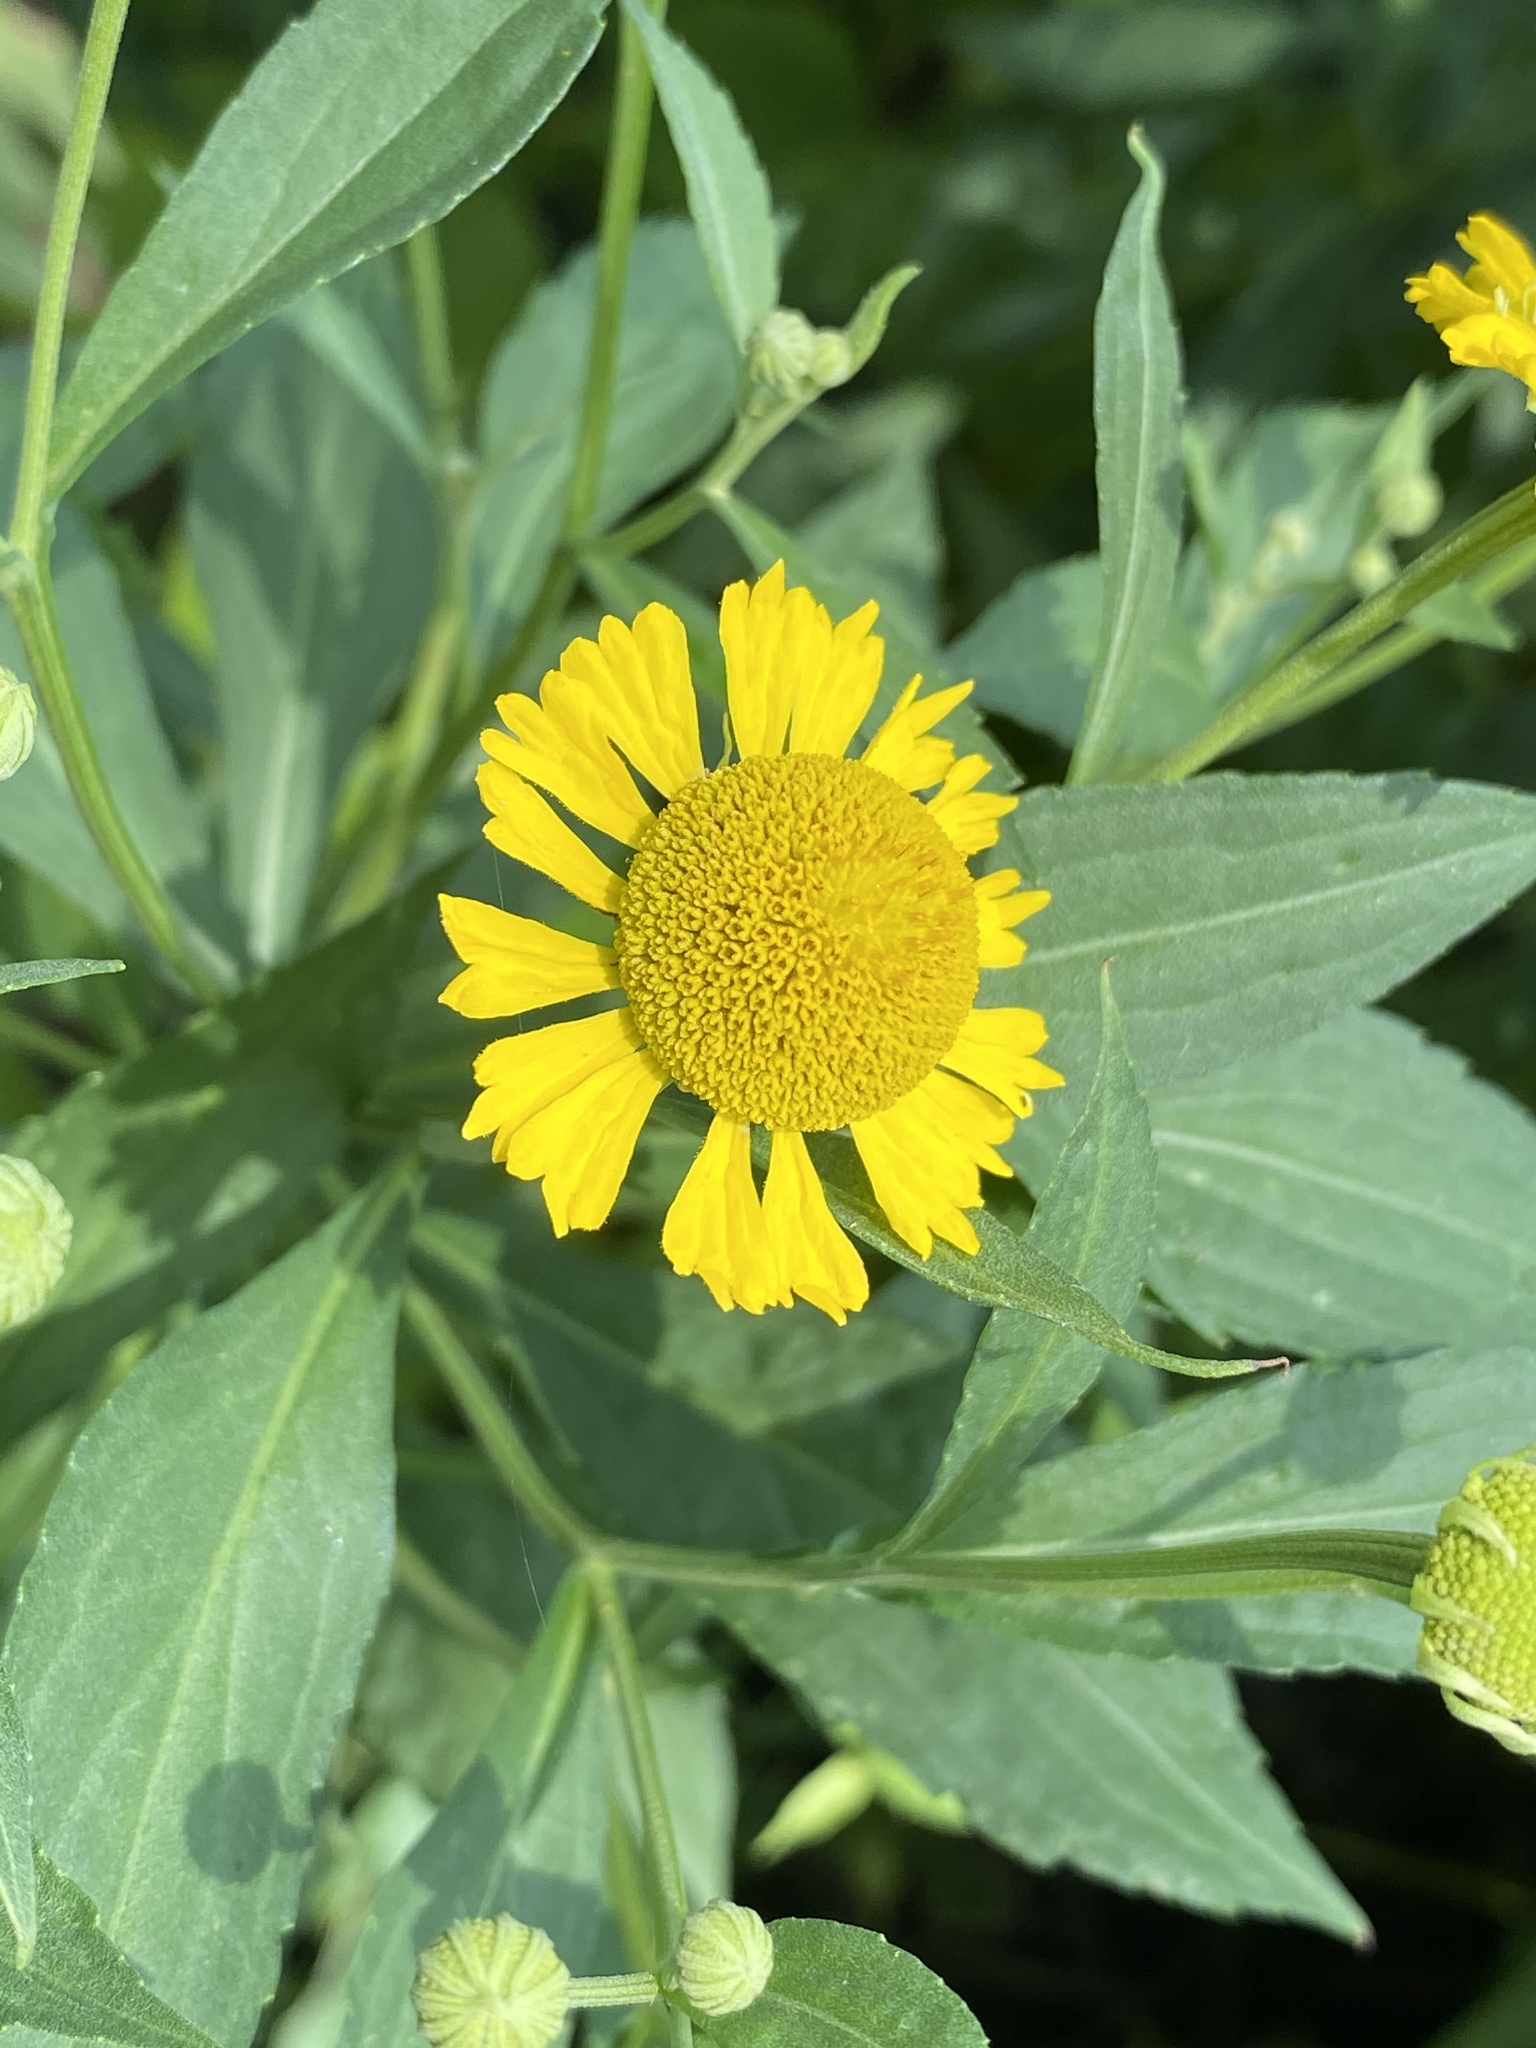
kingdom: Plantae
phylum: Tracheophyta
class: Magnoliopsida
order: Asterales
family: Asteraceae
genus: Helenium
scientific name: Helenium autumnale
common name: Sneezeweed
